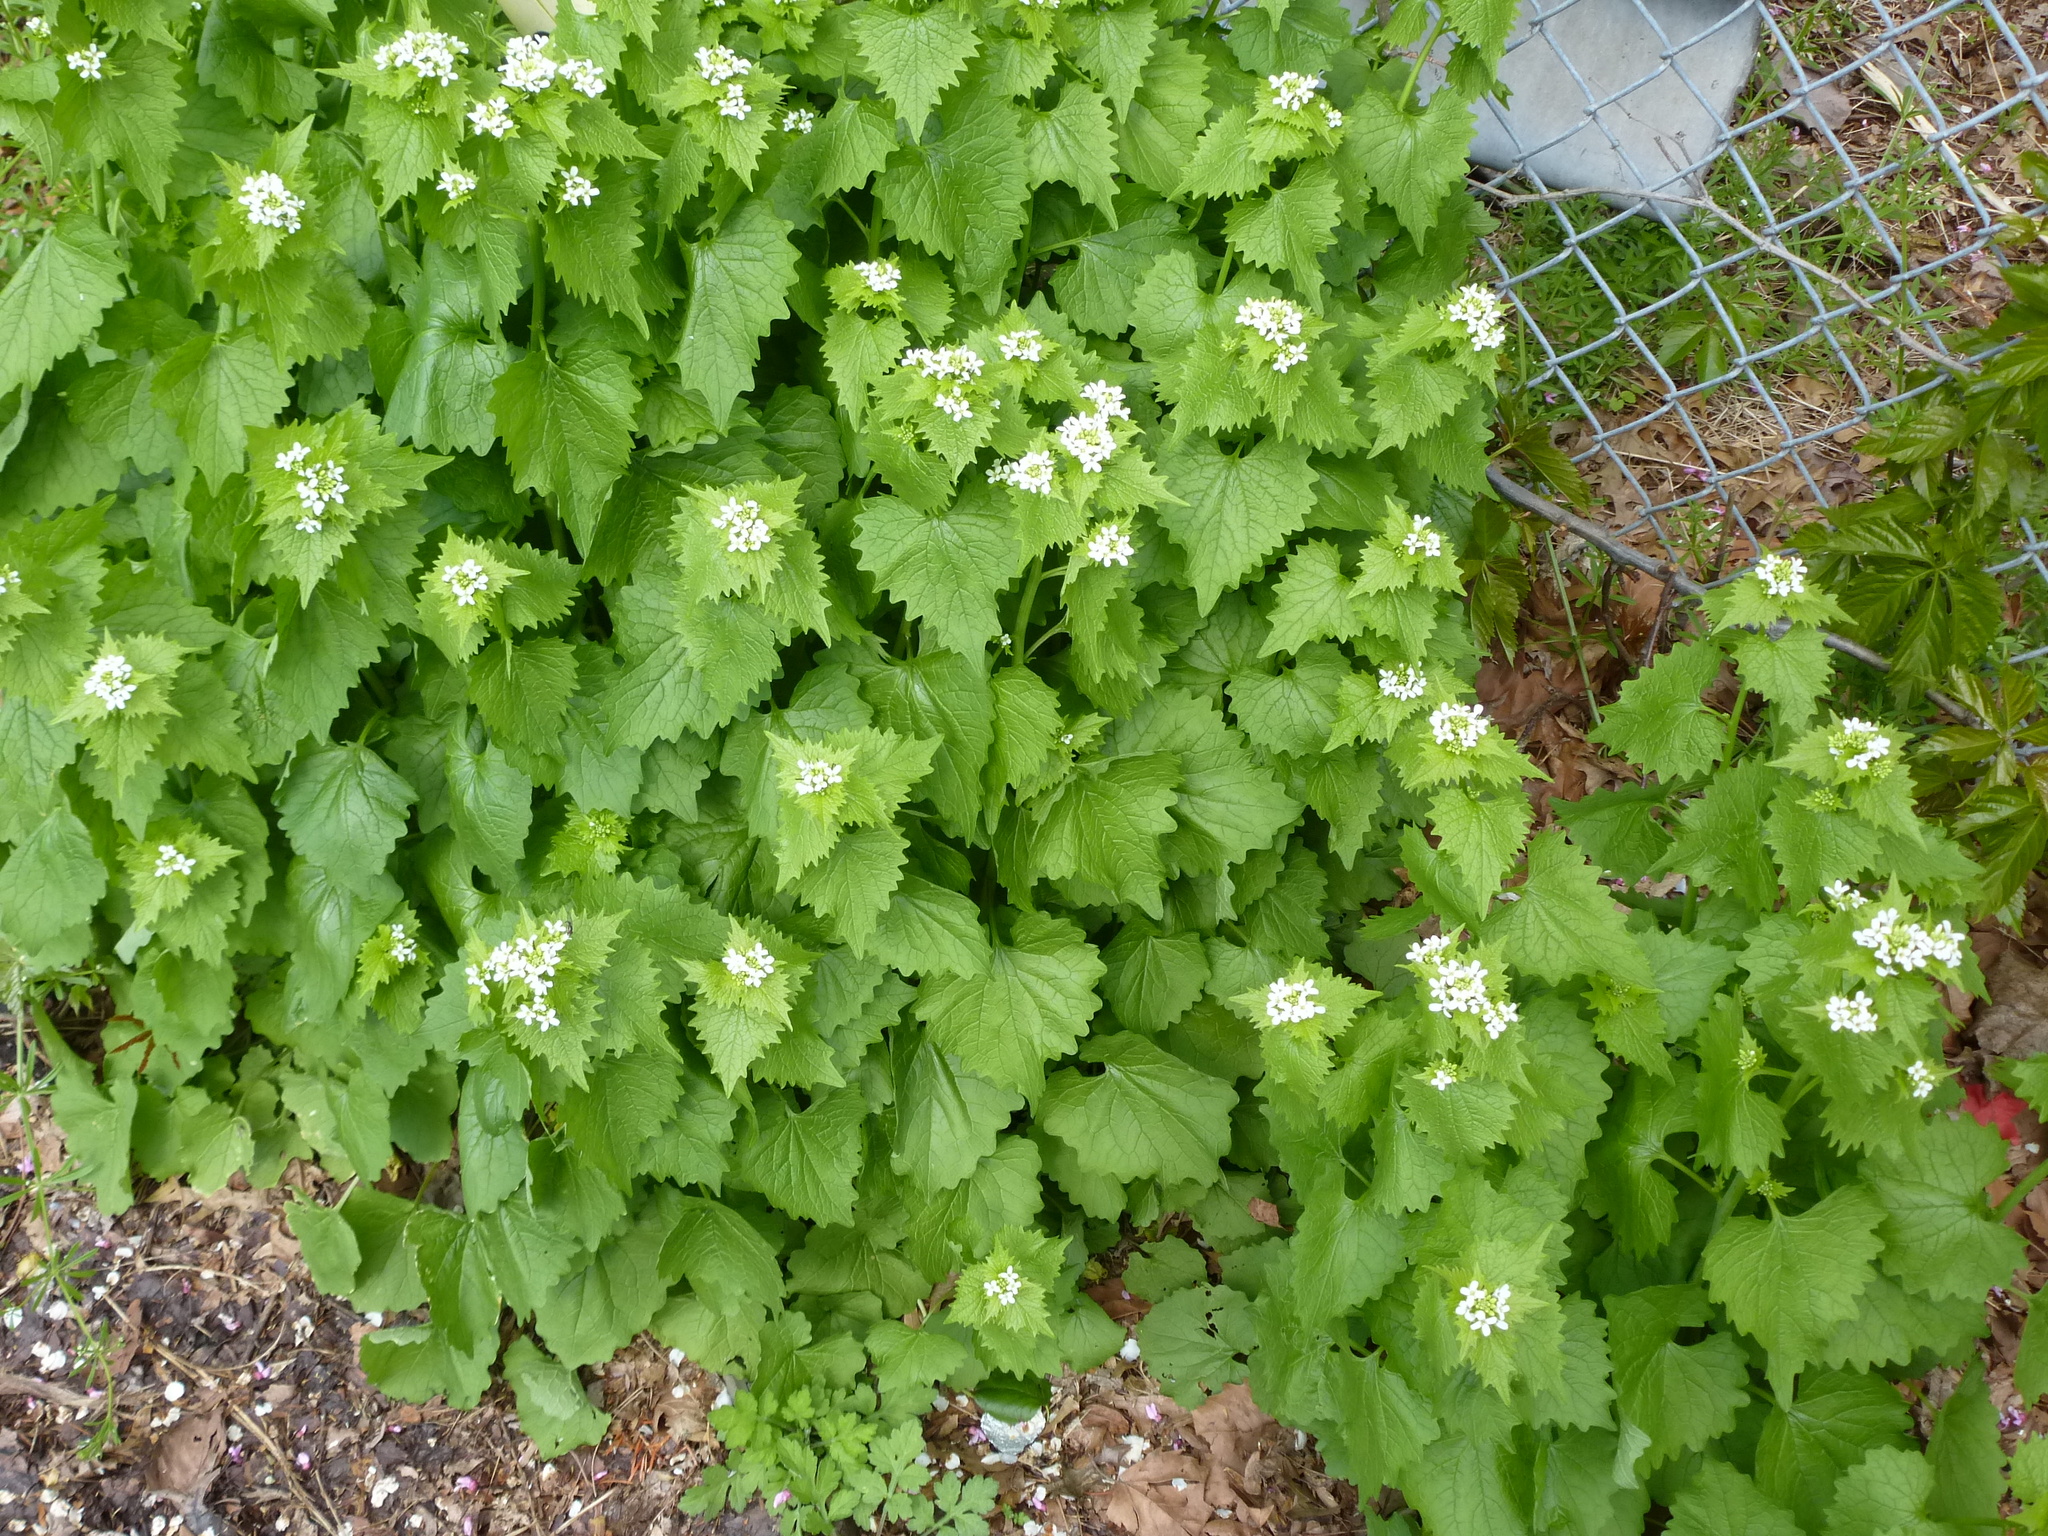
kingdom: Plantae
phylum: Tracheophyta
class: Magnoliopsida
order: Brassicales
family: Brassicaceae
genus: Alliaria
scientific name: Alliaria petiolata
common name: Garlic mustard
